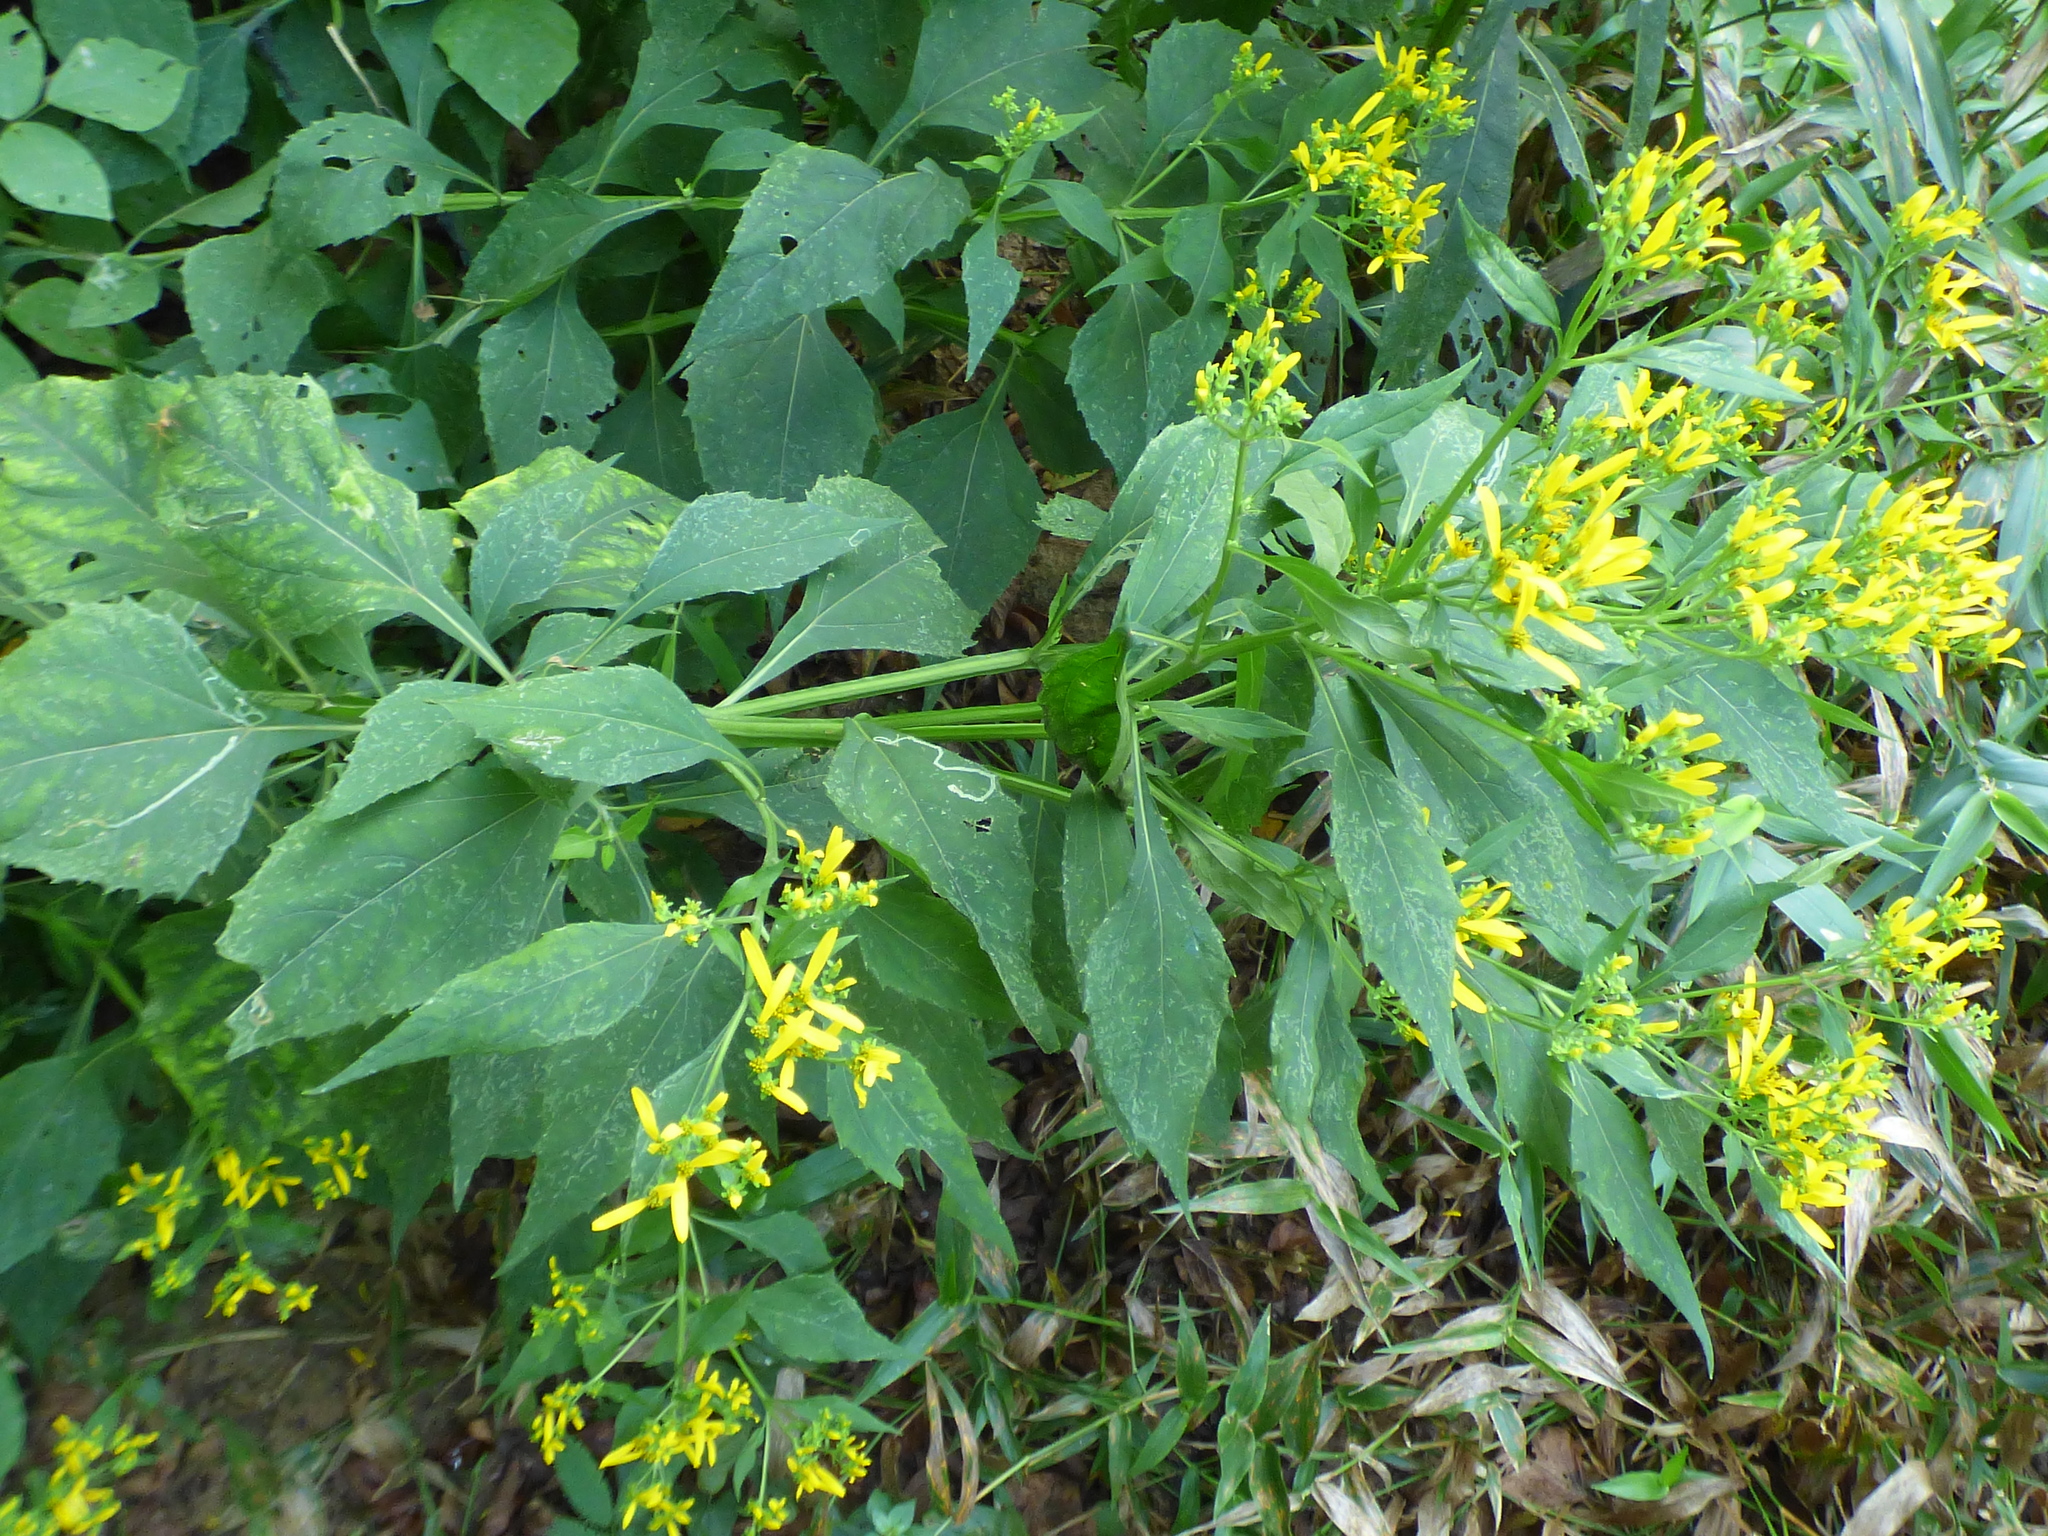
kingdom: Plantae
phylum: Tracheophyta
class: Magnoliopsida
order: Asterales
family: Asteraceae
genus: Verbesina
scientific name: Verbesina occidentalis
